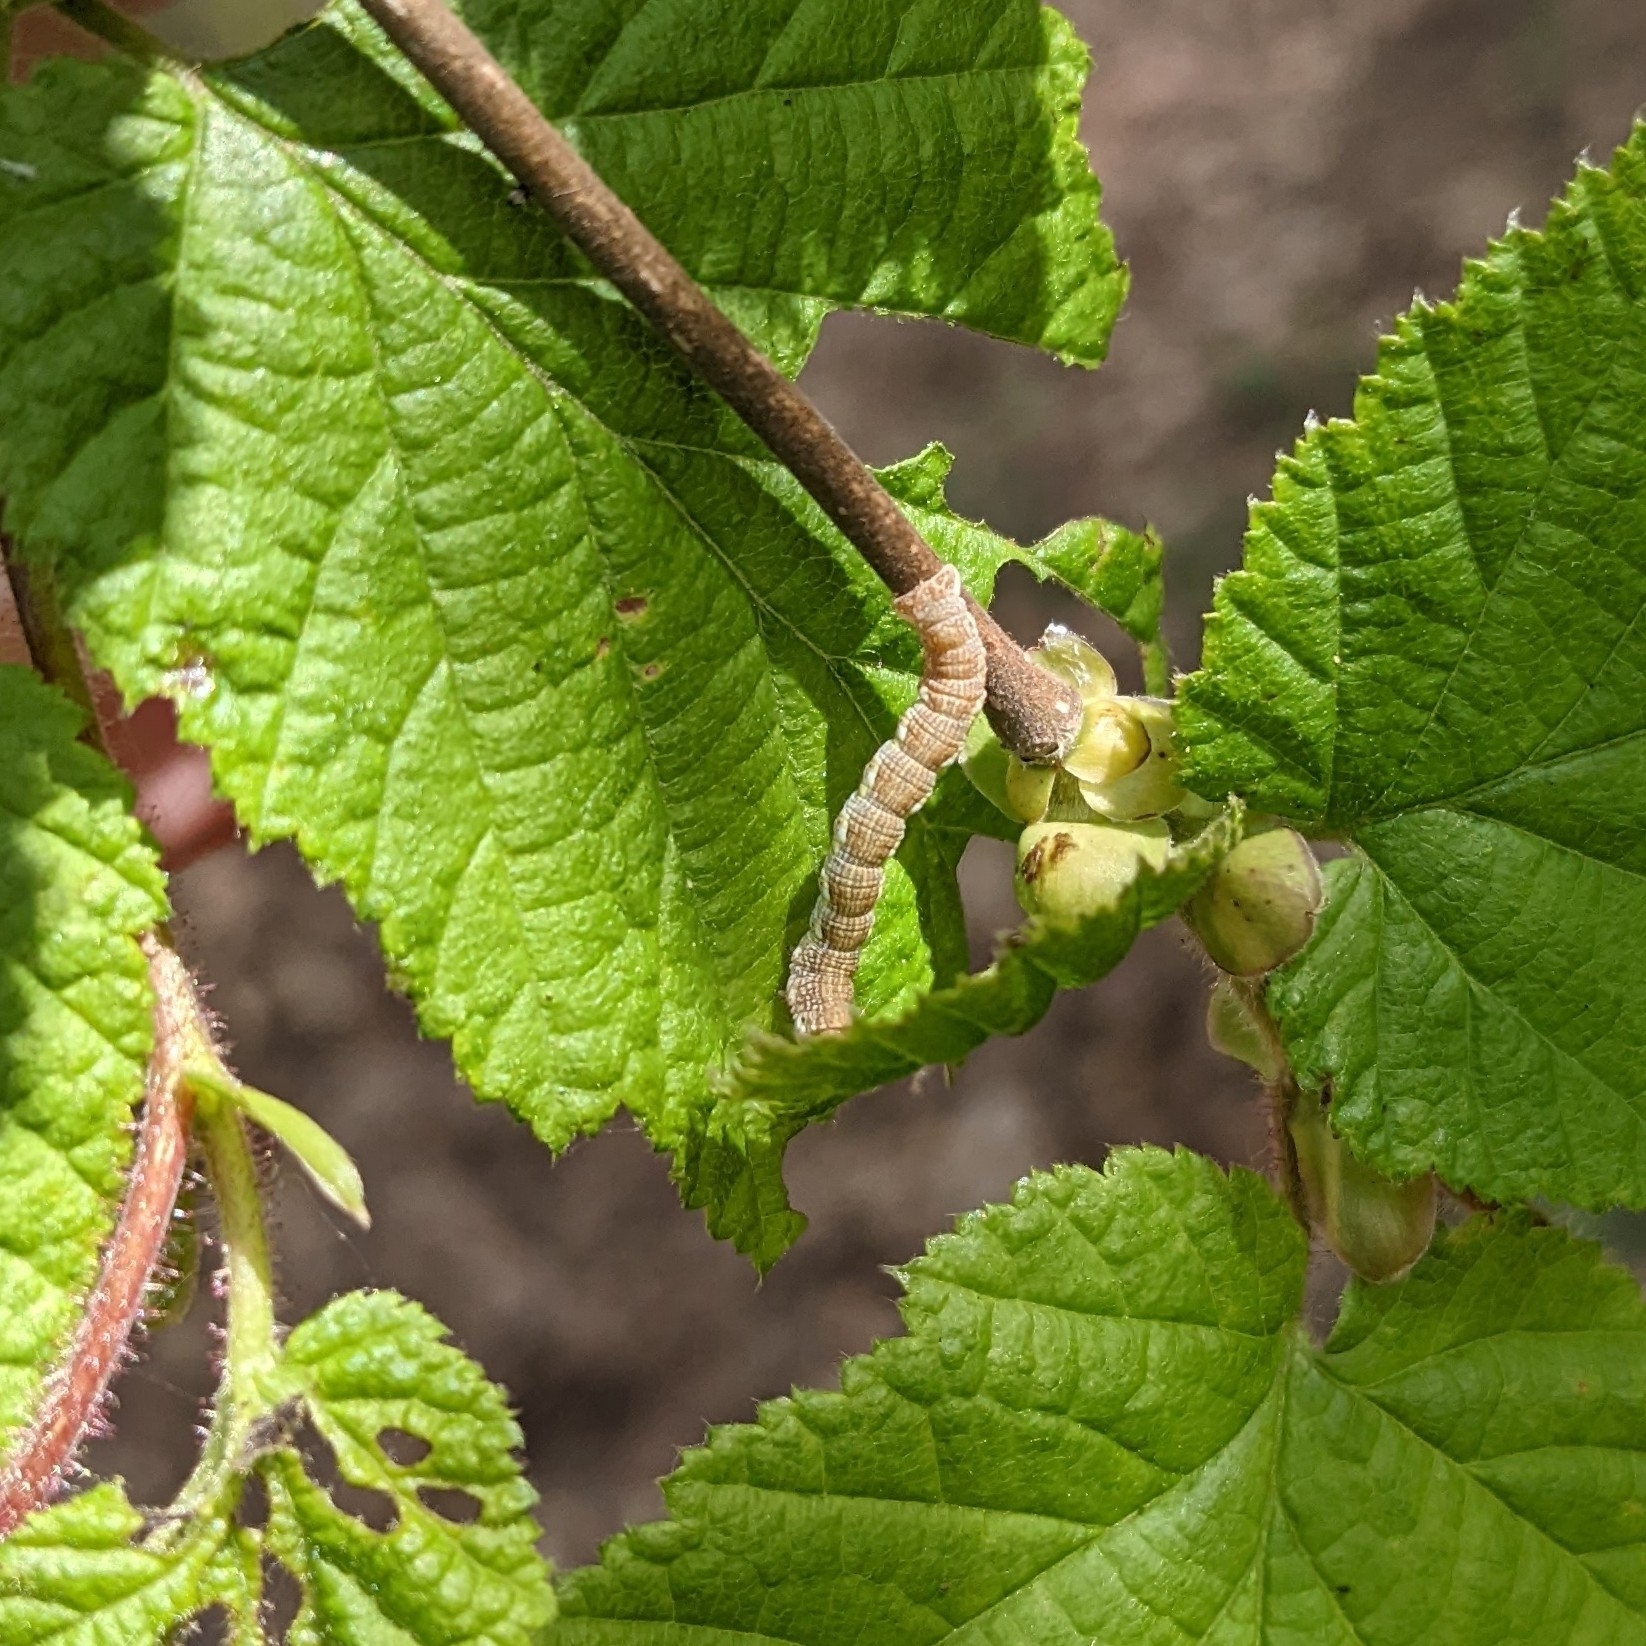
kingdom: Animalia
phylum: Arthropoda
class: Insecta
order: Lepidoptera
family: Geometridae
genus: Erannis
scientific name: Erannis defoliaria
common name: Mottled umber
